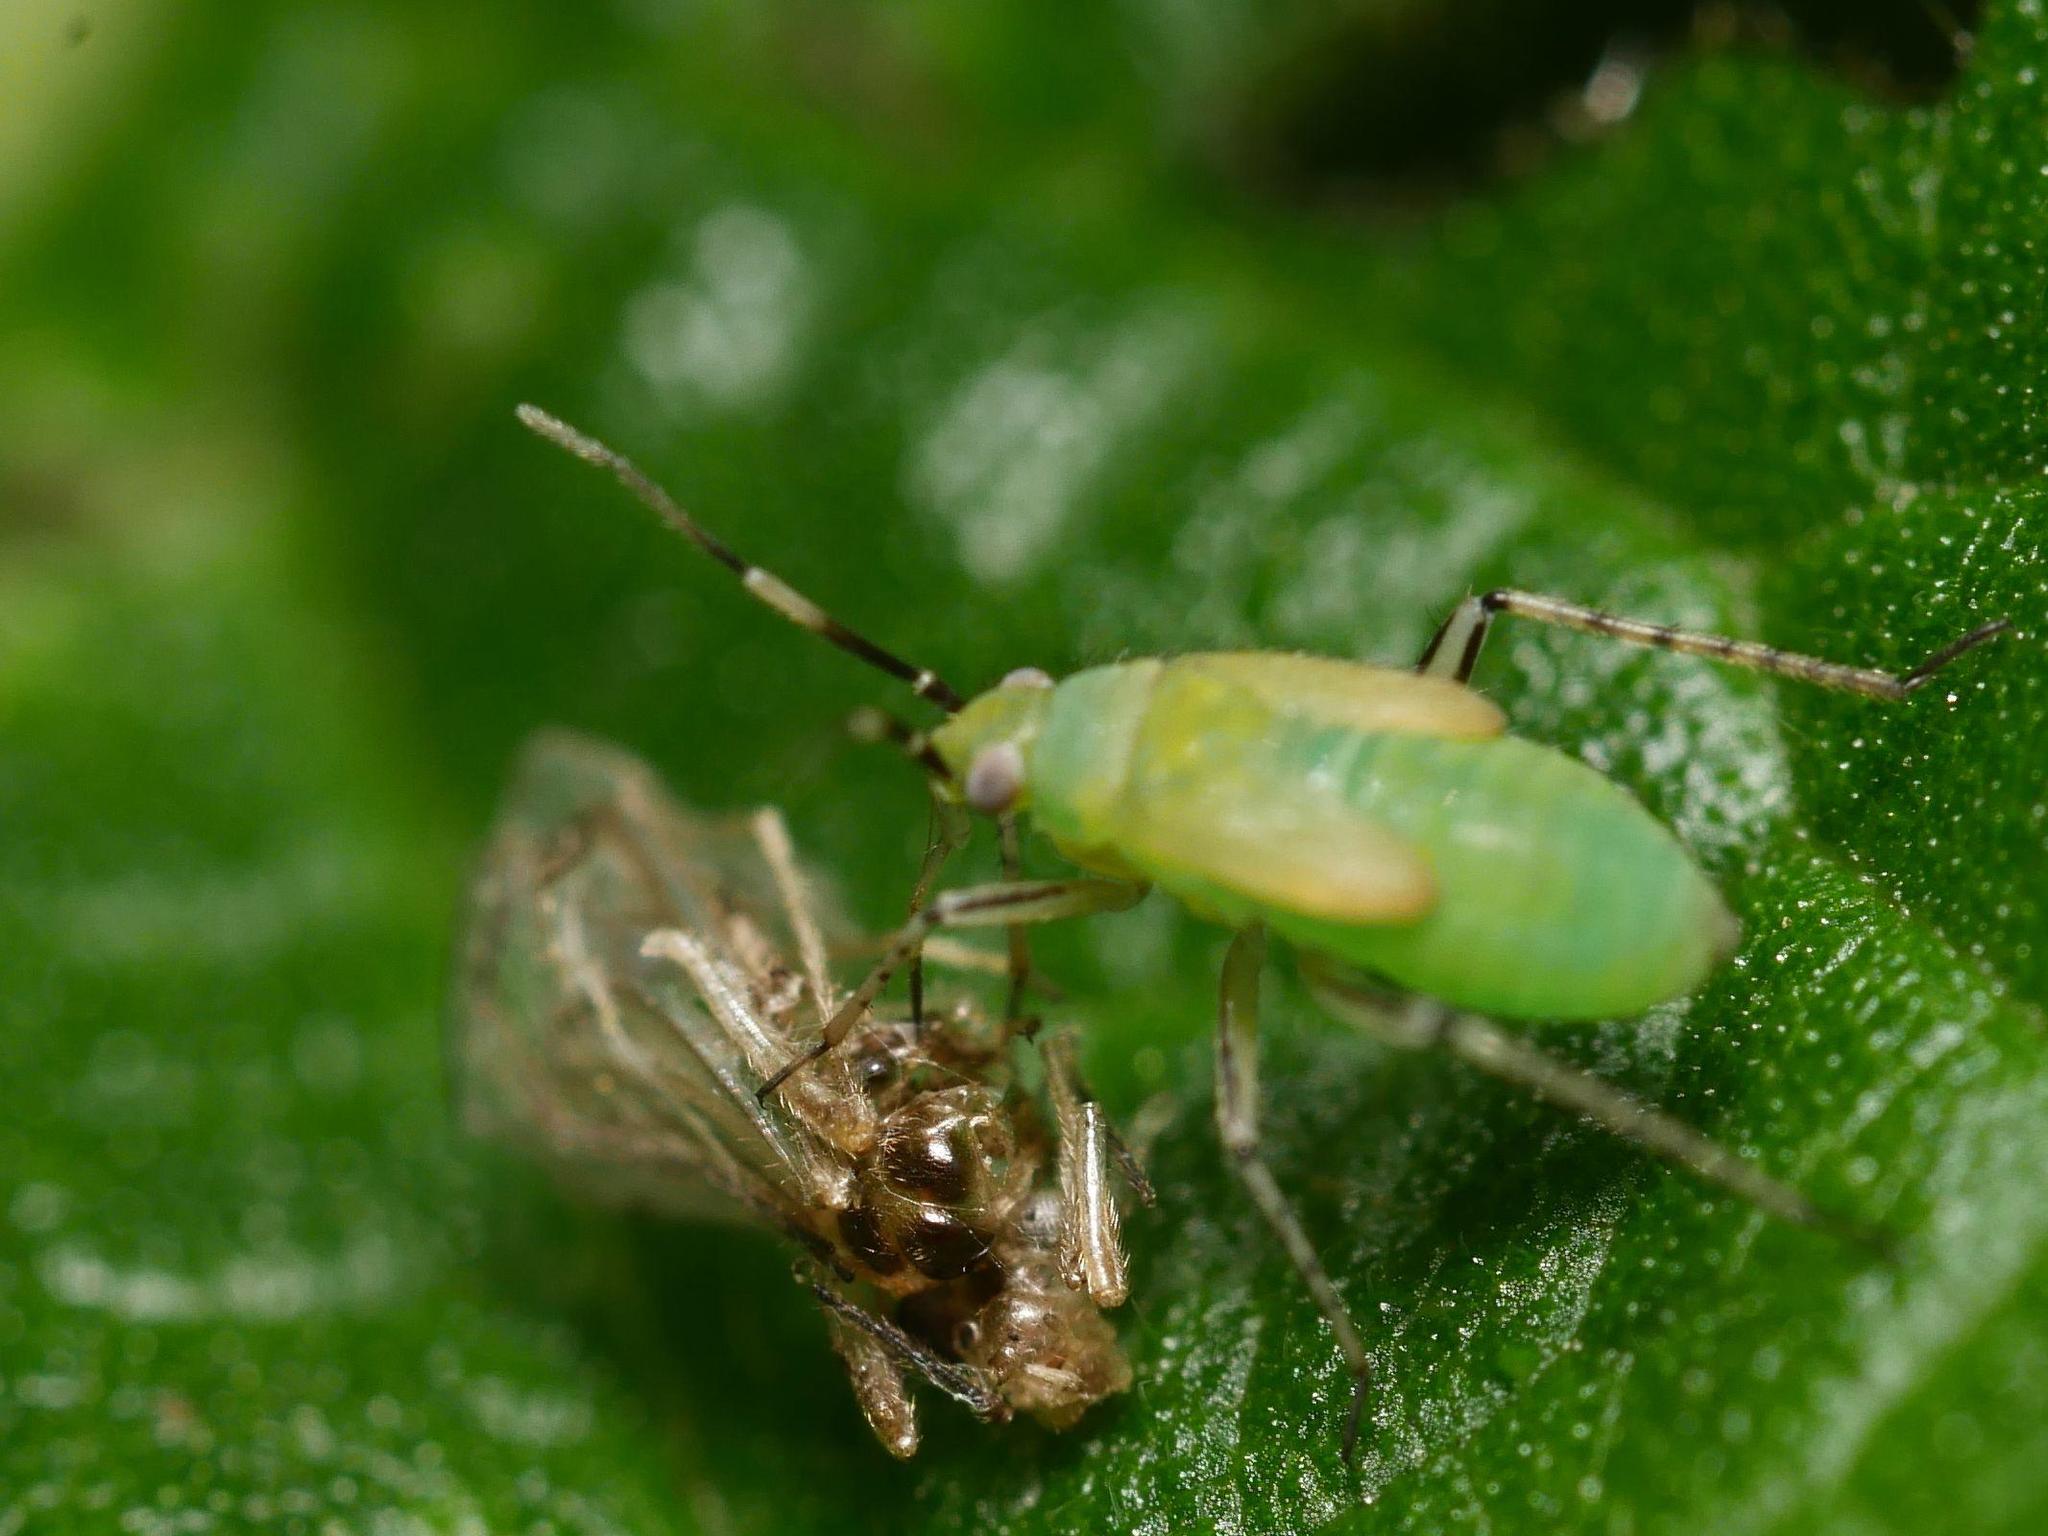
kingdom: Animalia
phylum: Arthropoda
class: Insecta
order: Hemiptera
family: Miridae
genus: Plagiognathus
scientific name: Plagiognathus arbustorum
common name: Plant bug
